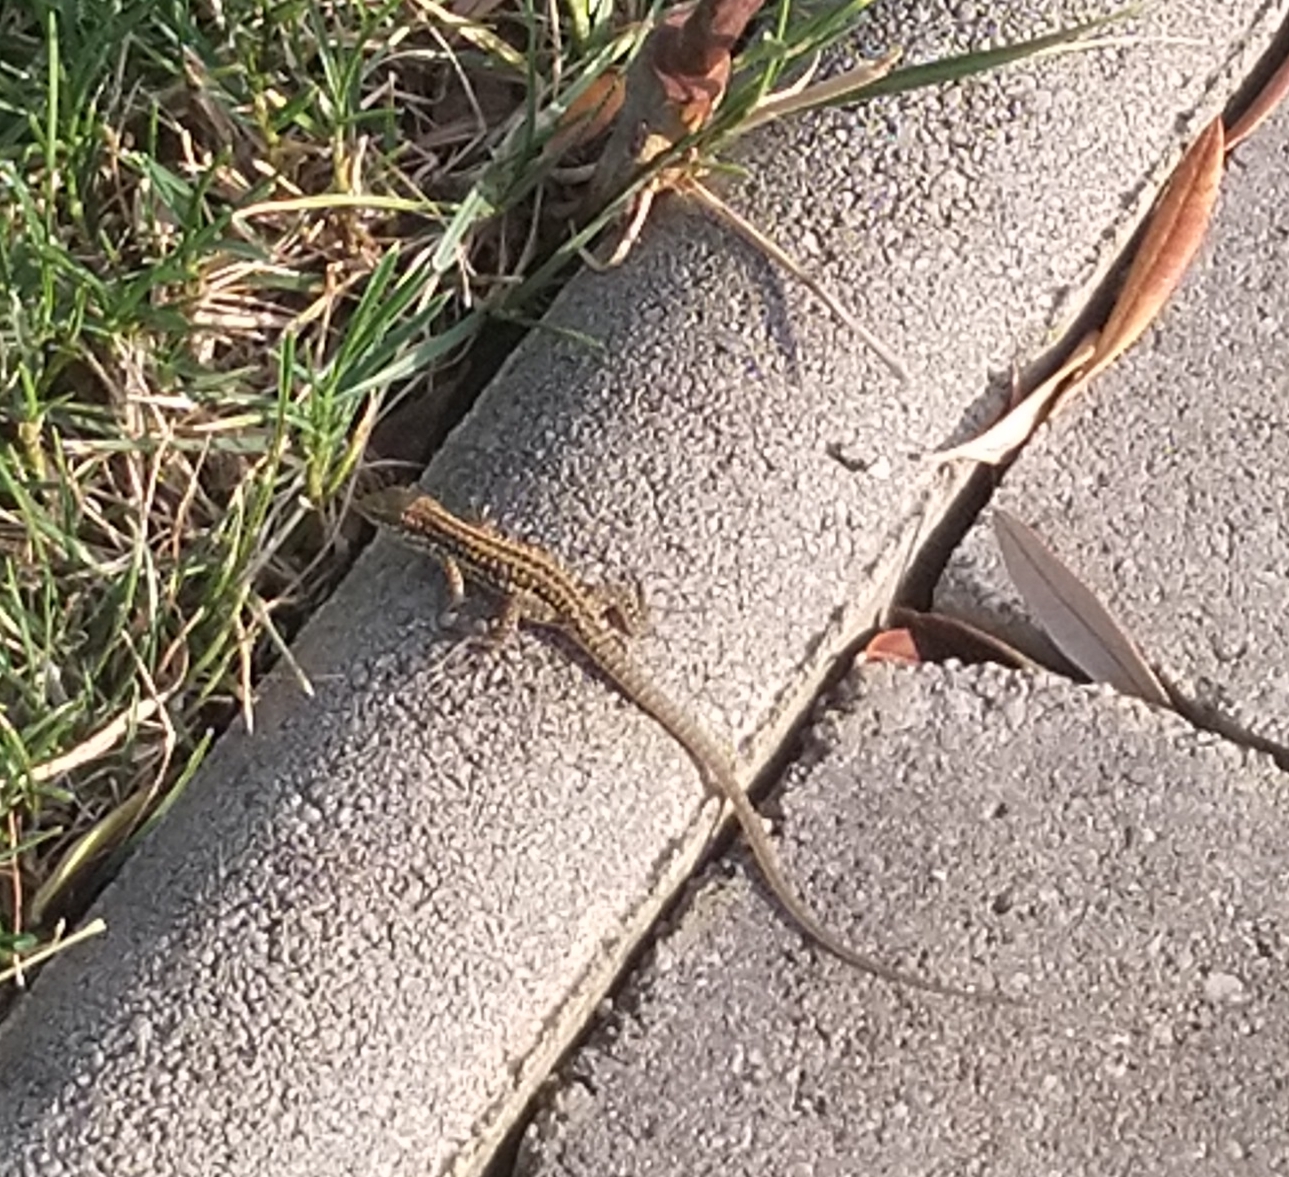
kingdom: Animalia
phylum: Chordata
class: Squamata
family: Lacertidae
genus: Podarcis
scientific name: Podarcis siculus
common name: Italian wall lizard
